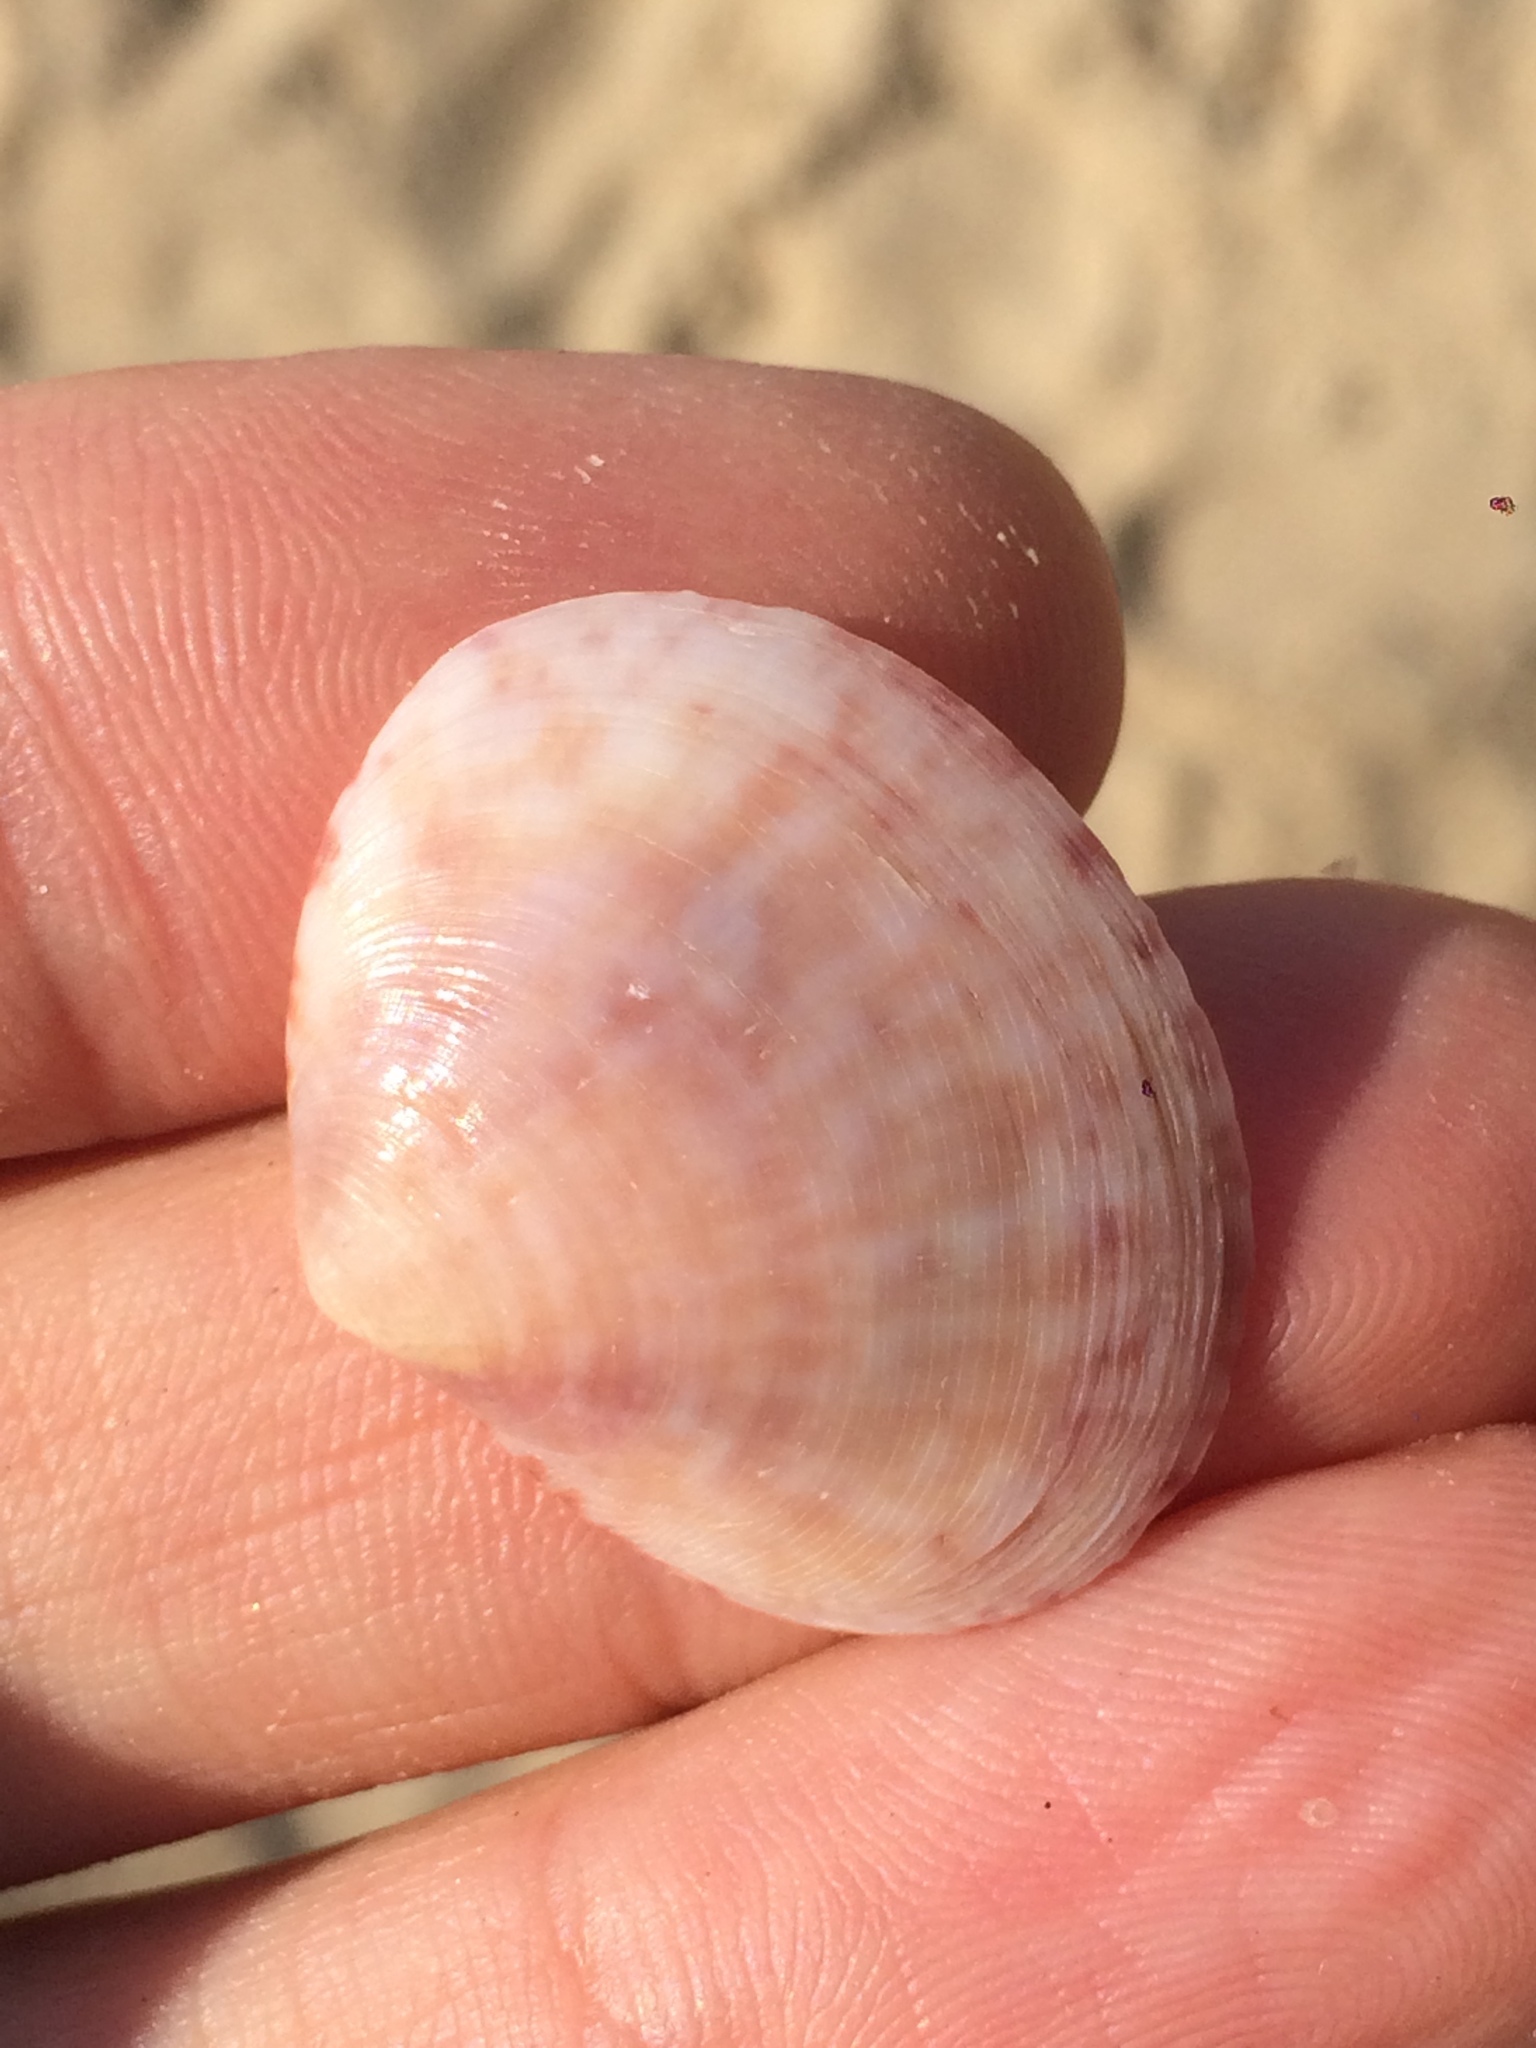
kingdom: Animalia
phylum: Mollusca
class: Bivalvia
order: Cardiida
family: Semelidae
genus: Semele
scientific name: Semele purpurascens
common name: Purplish semele
